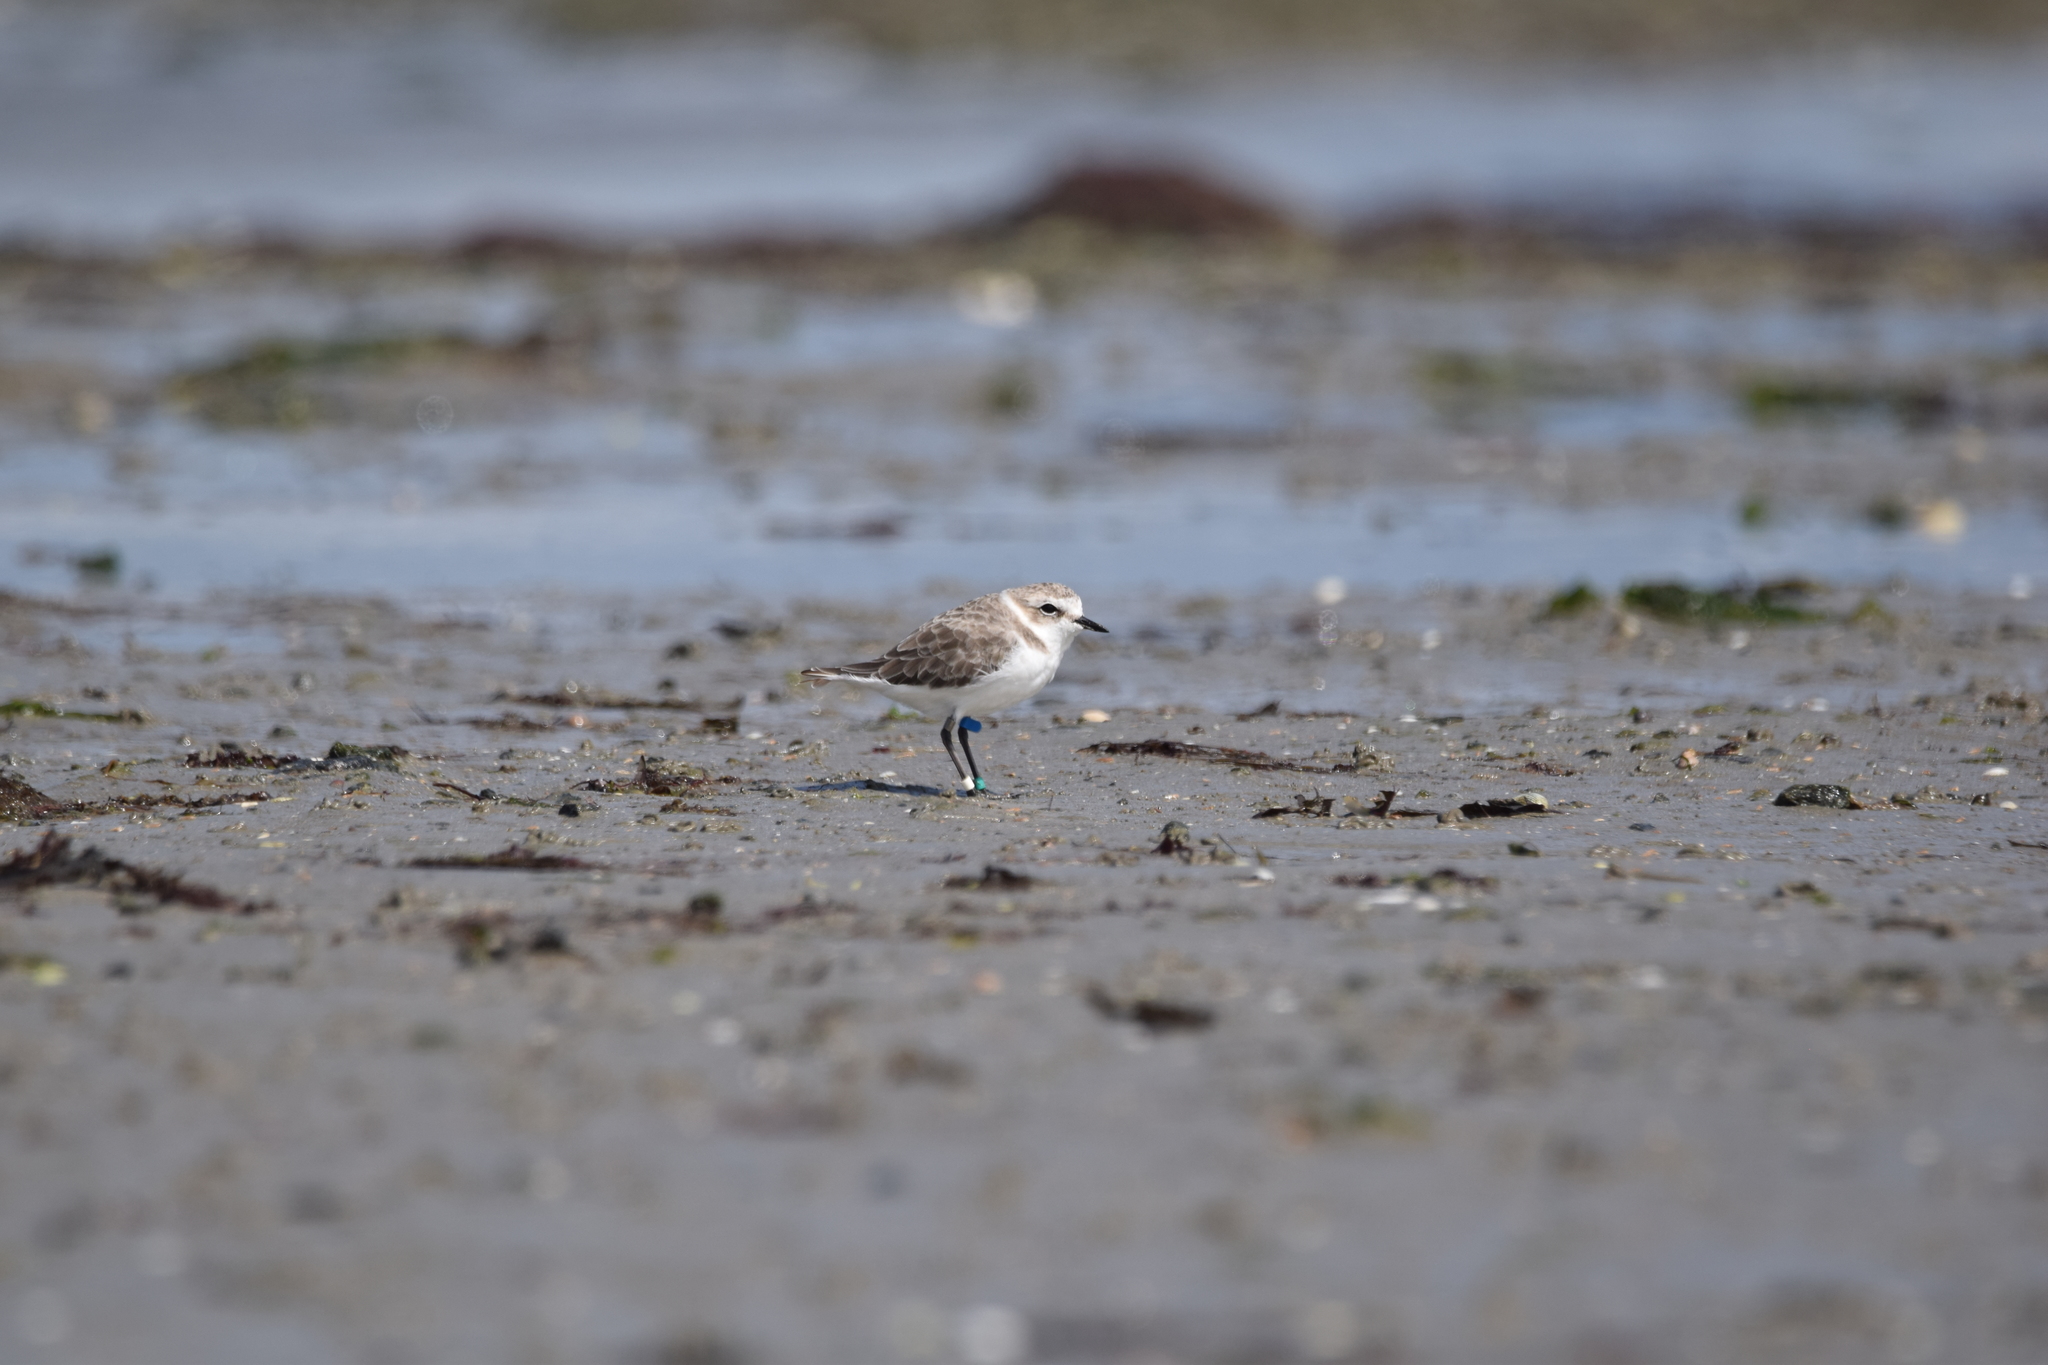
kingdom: Animalia
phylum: Chordata
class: Aves
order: Charadriiformes
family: Charadriidae
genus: Charadrius
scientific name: Charadrius alexandrinus
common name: Kentish plover
